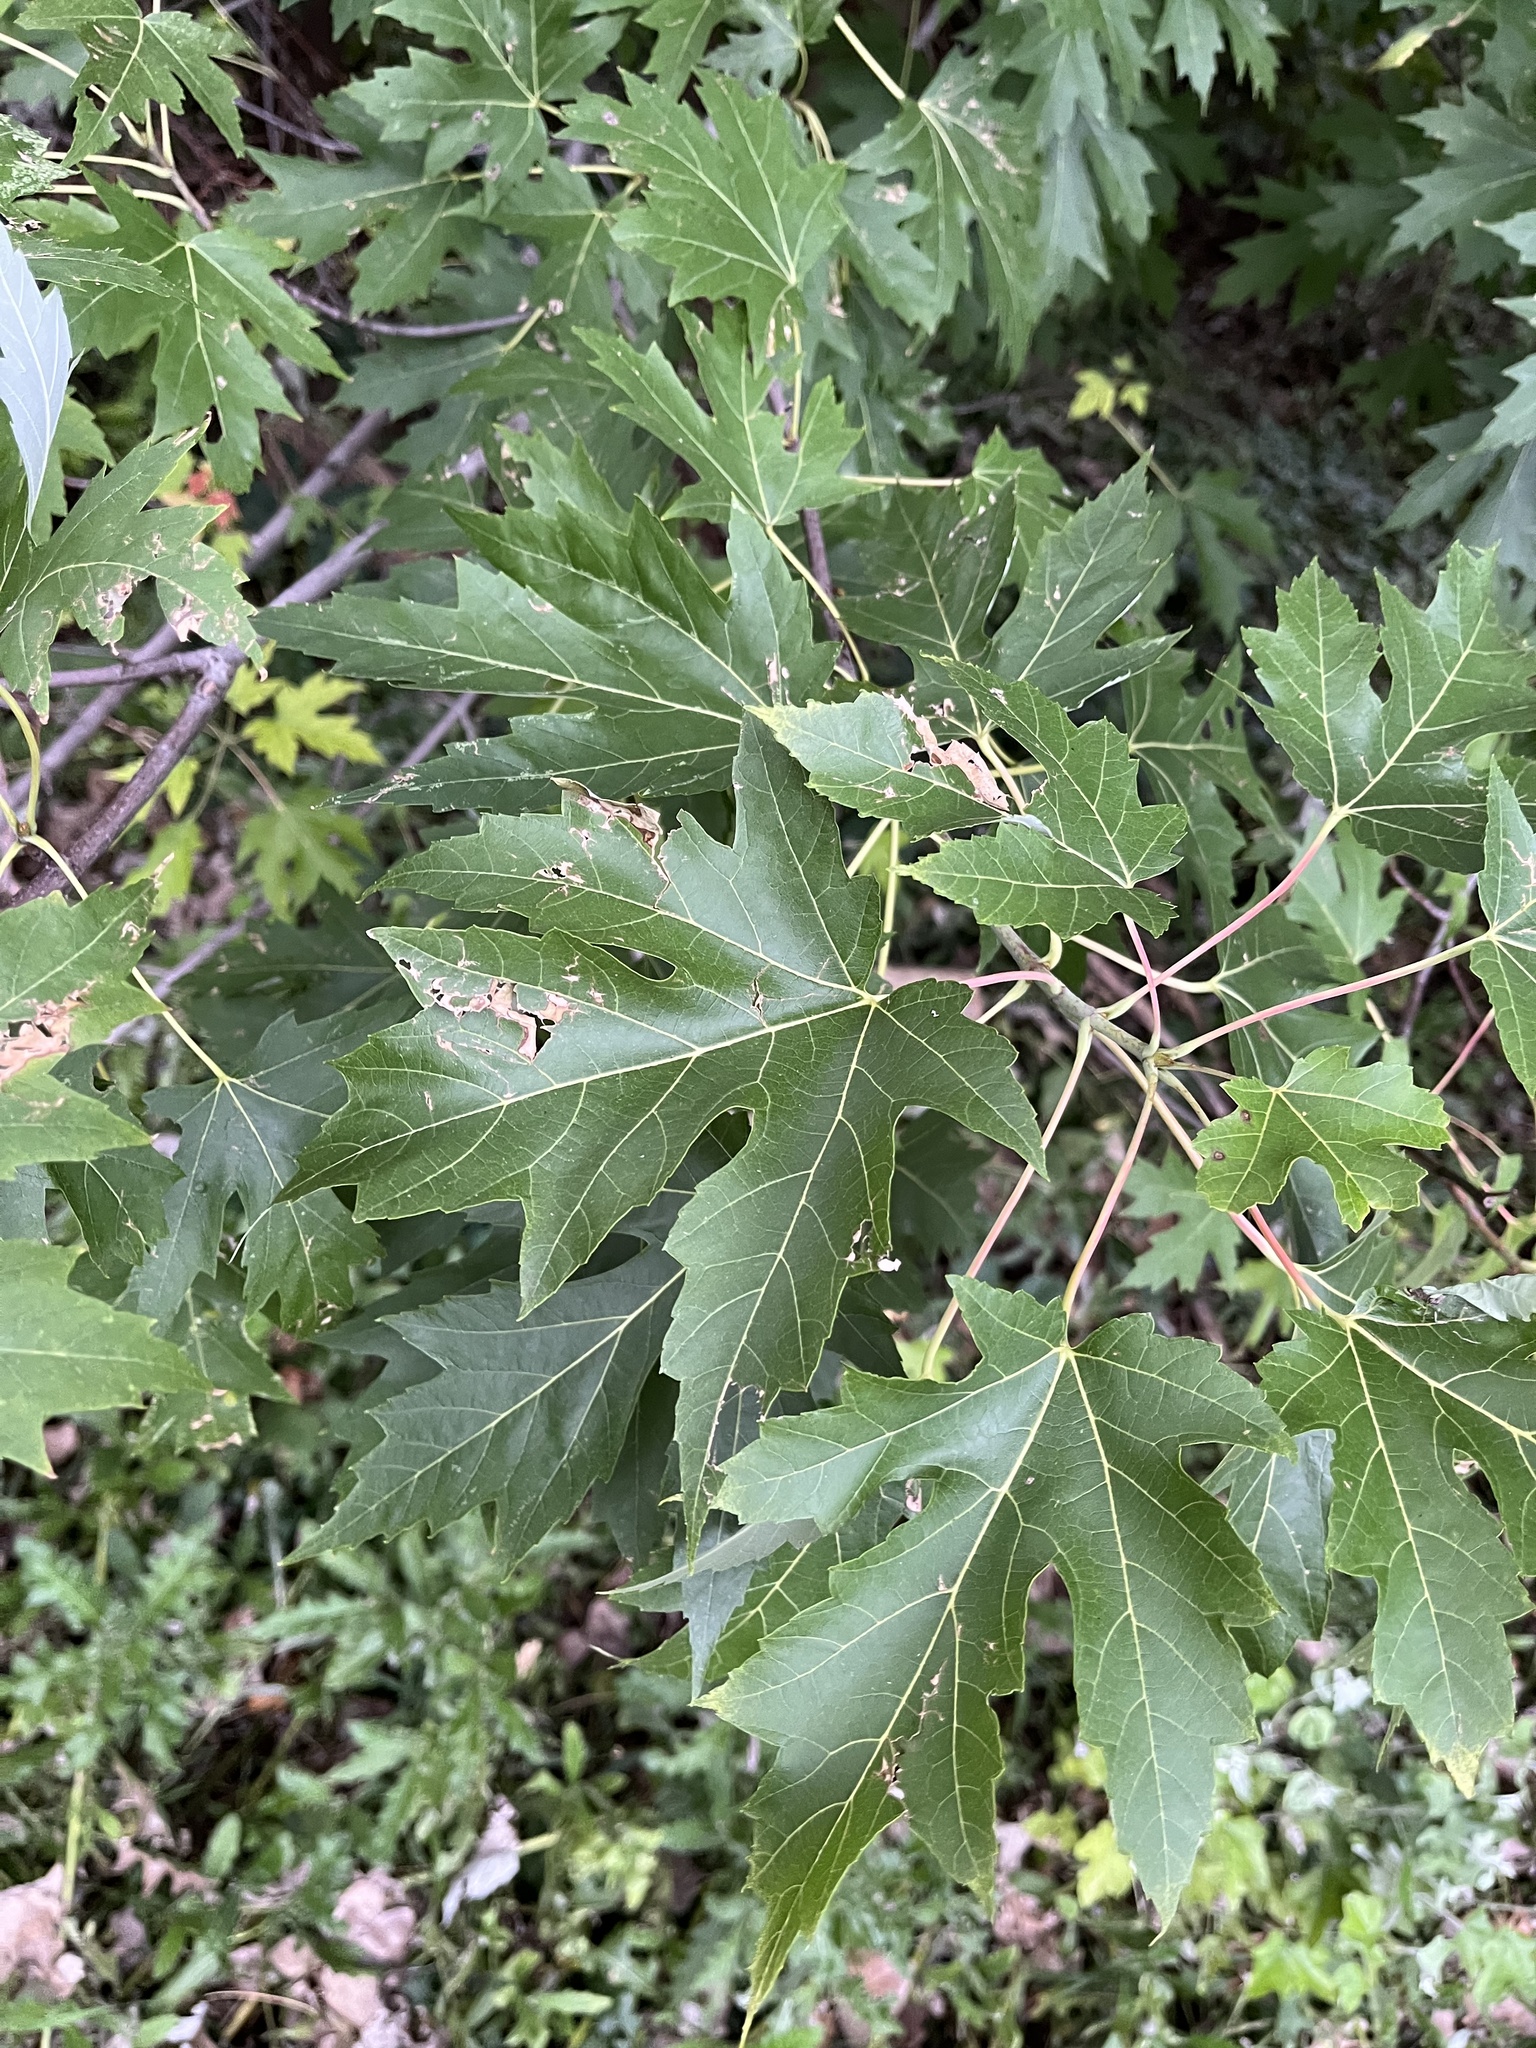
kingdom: Plantae
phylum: Tracheophyta
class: Magnoliopsida
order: Sapindales
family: Sapindaceae
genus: Acer
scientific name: Acer saccharinum
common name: Silver maple
